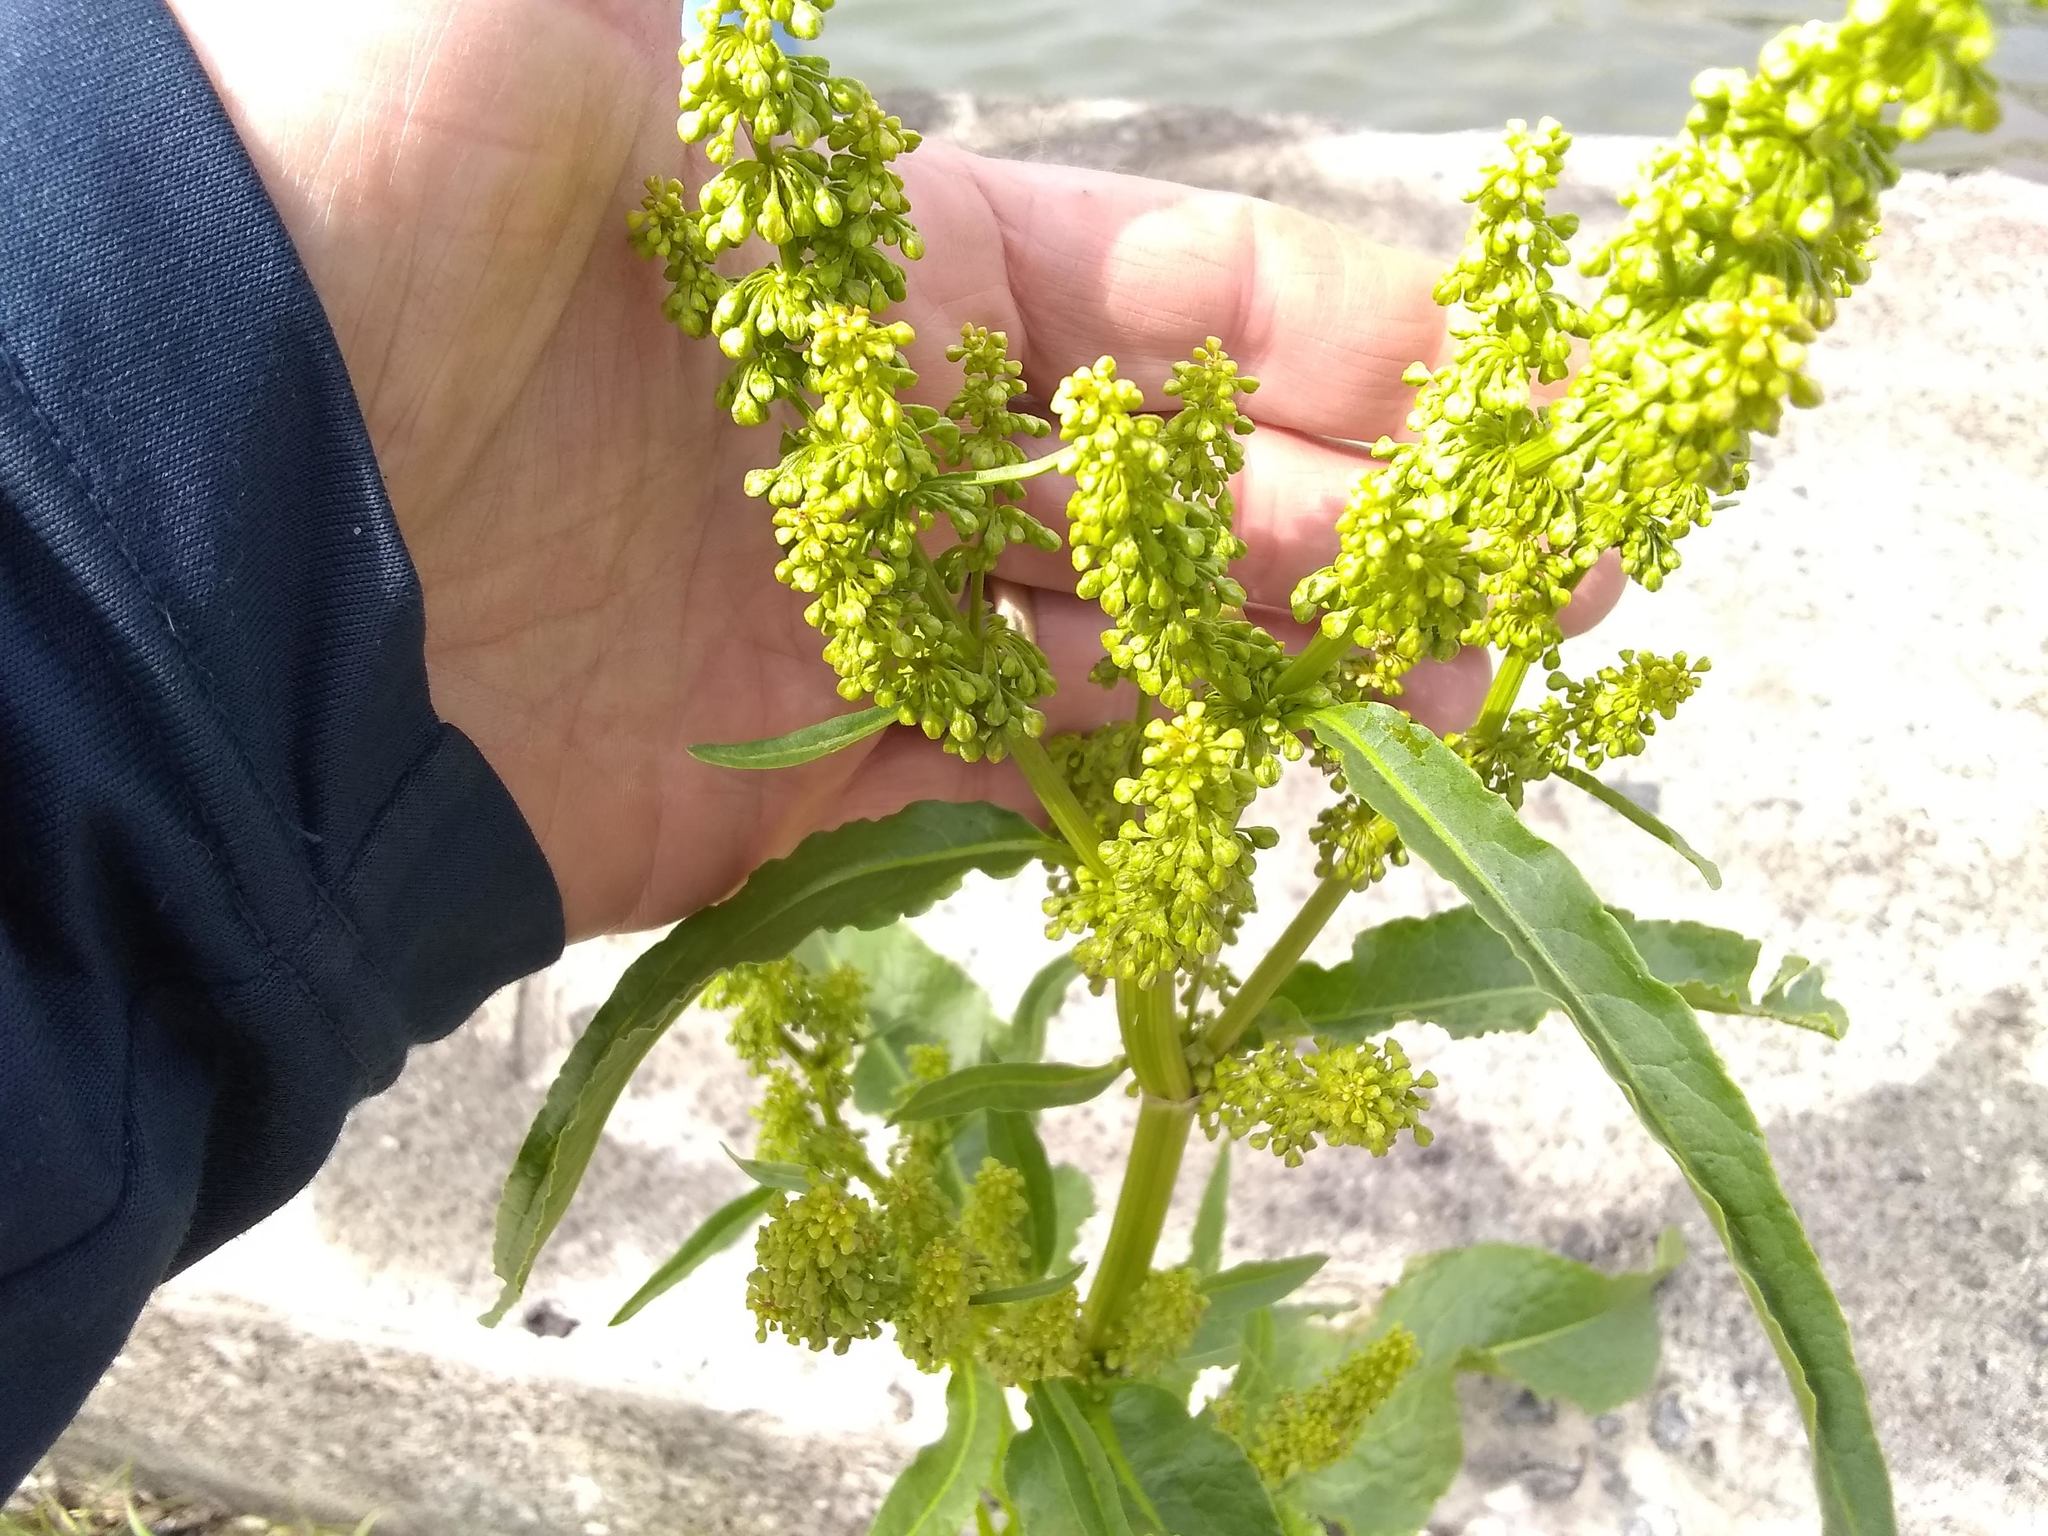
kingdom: Plantae
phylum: Tracheophyta
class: Magnoliopsida
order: Caryophyllales
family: Polygonaceae
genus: Rumex
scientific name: Rumex crispus
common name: Curled dock
